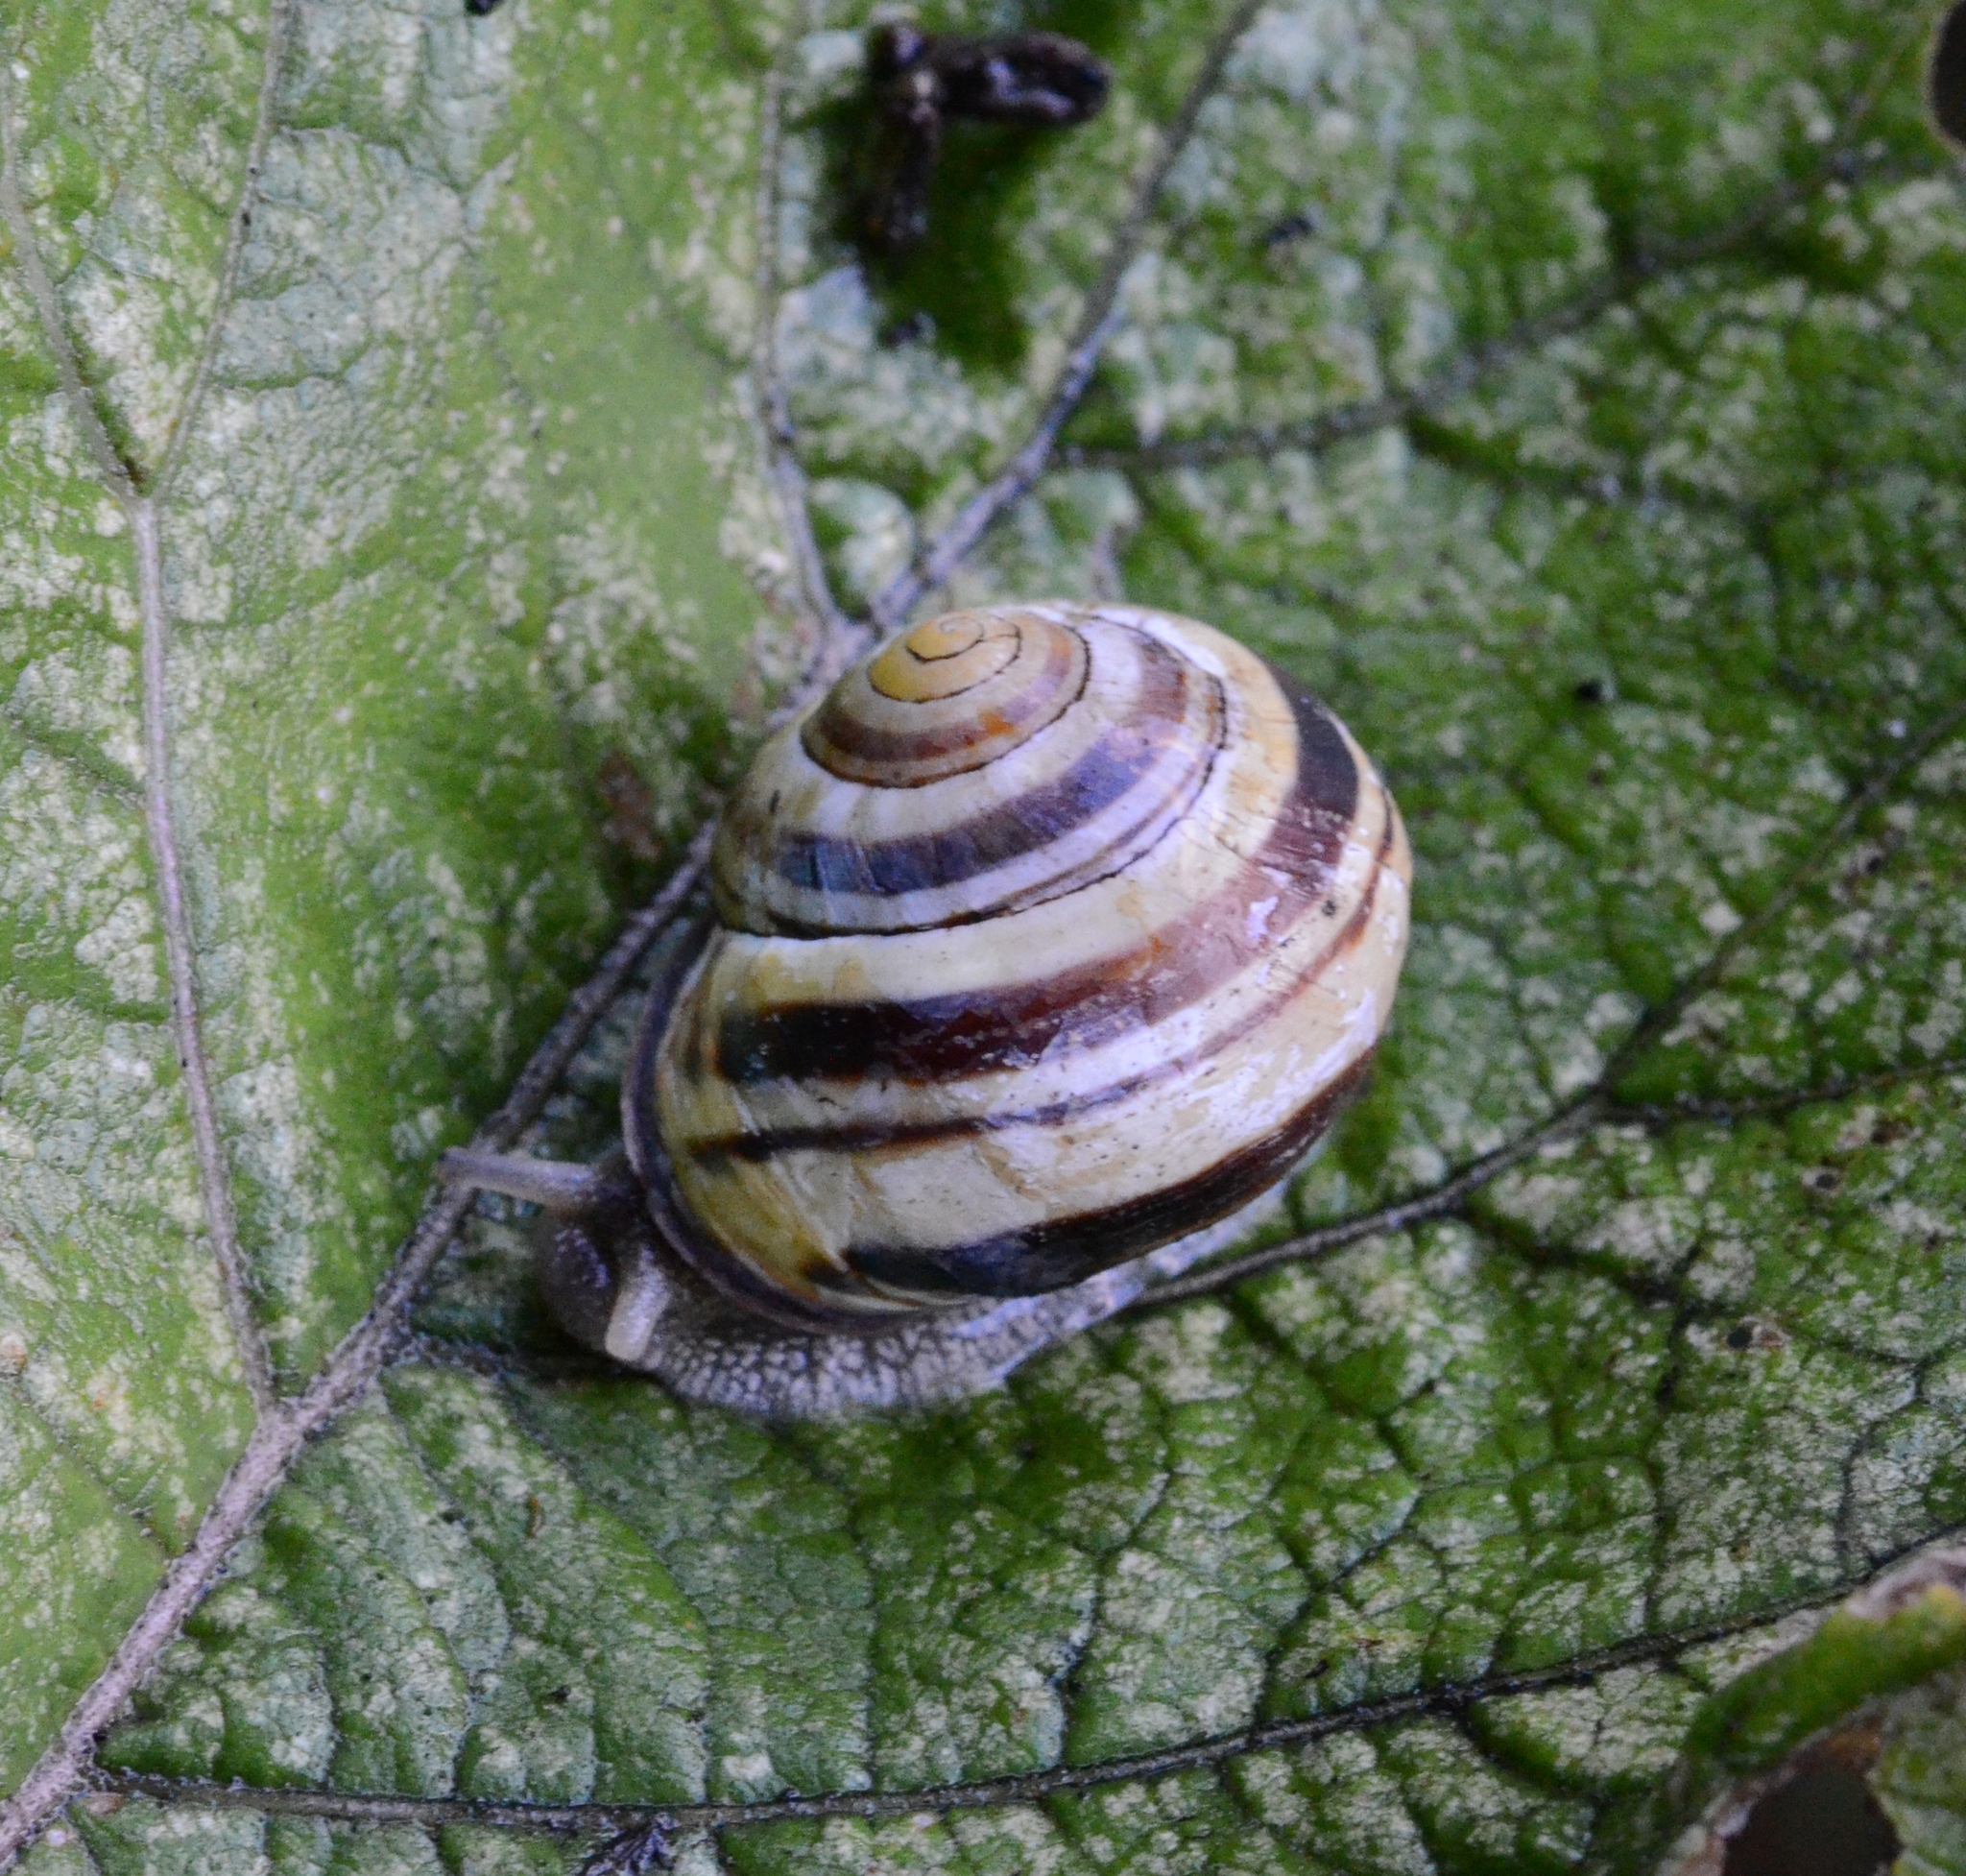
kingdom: Animalia
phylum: Mollusca
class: Gastropoda
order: Stylommatophora
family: Helicidae
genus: Cepaea
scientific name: Cepaea nemoralis
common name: Grovesnail
